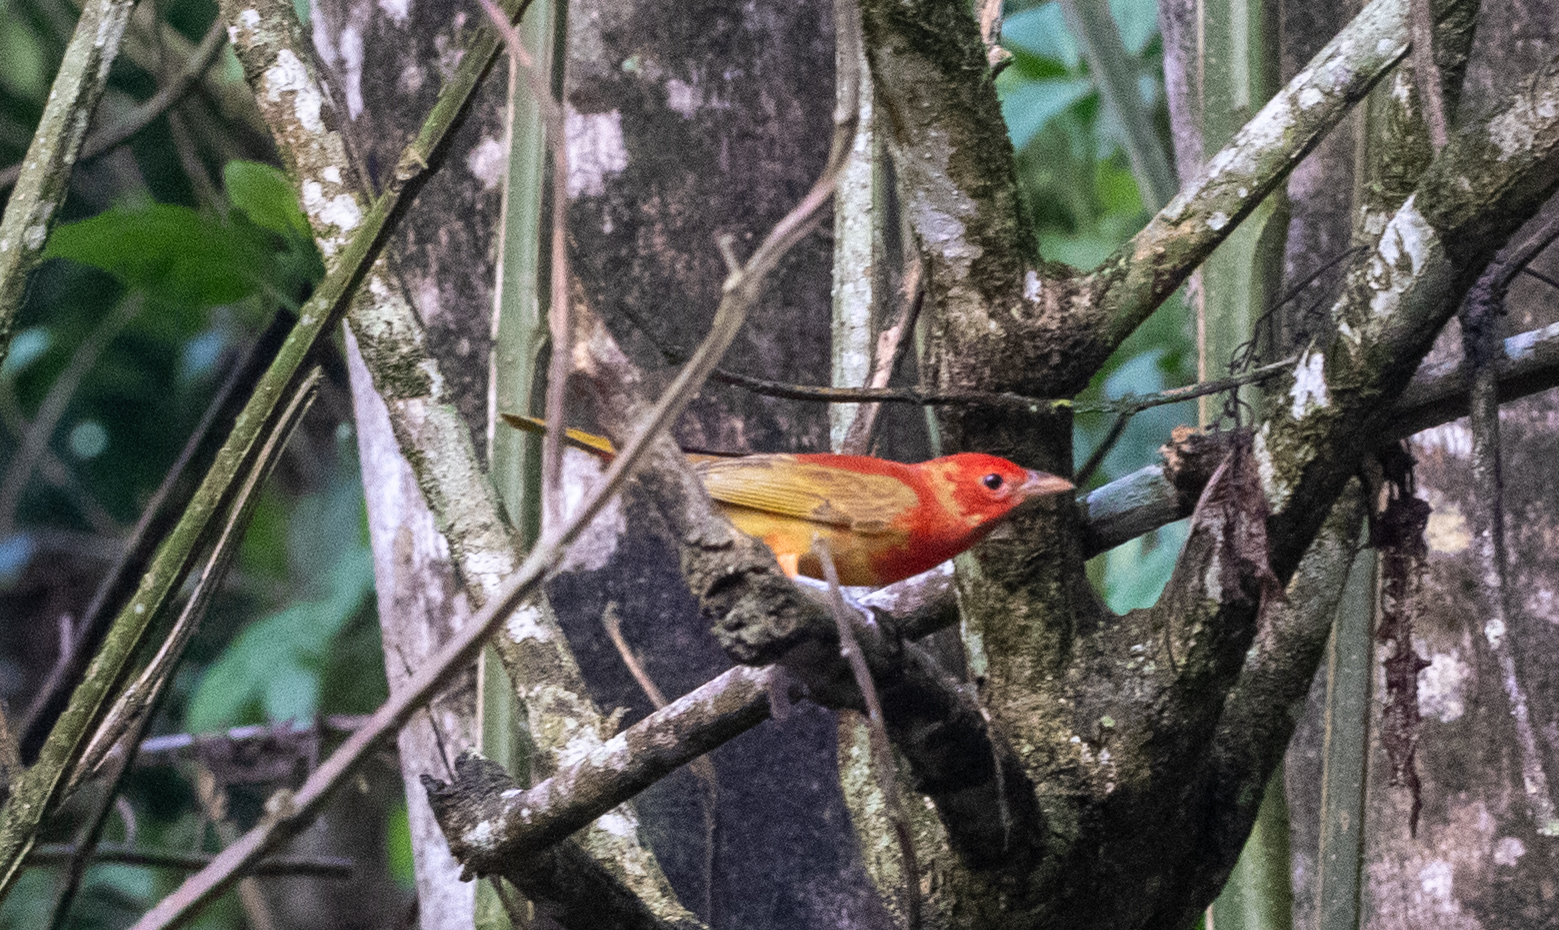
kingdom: Animalia
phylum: Chordata
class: Aves
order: Passeriformes
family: Cardinalidae
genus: Piranga
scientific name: Piranga rubra
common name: Summer tanager
